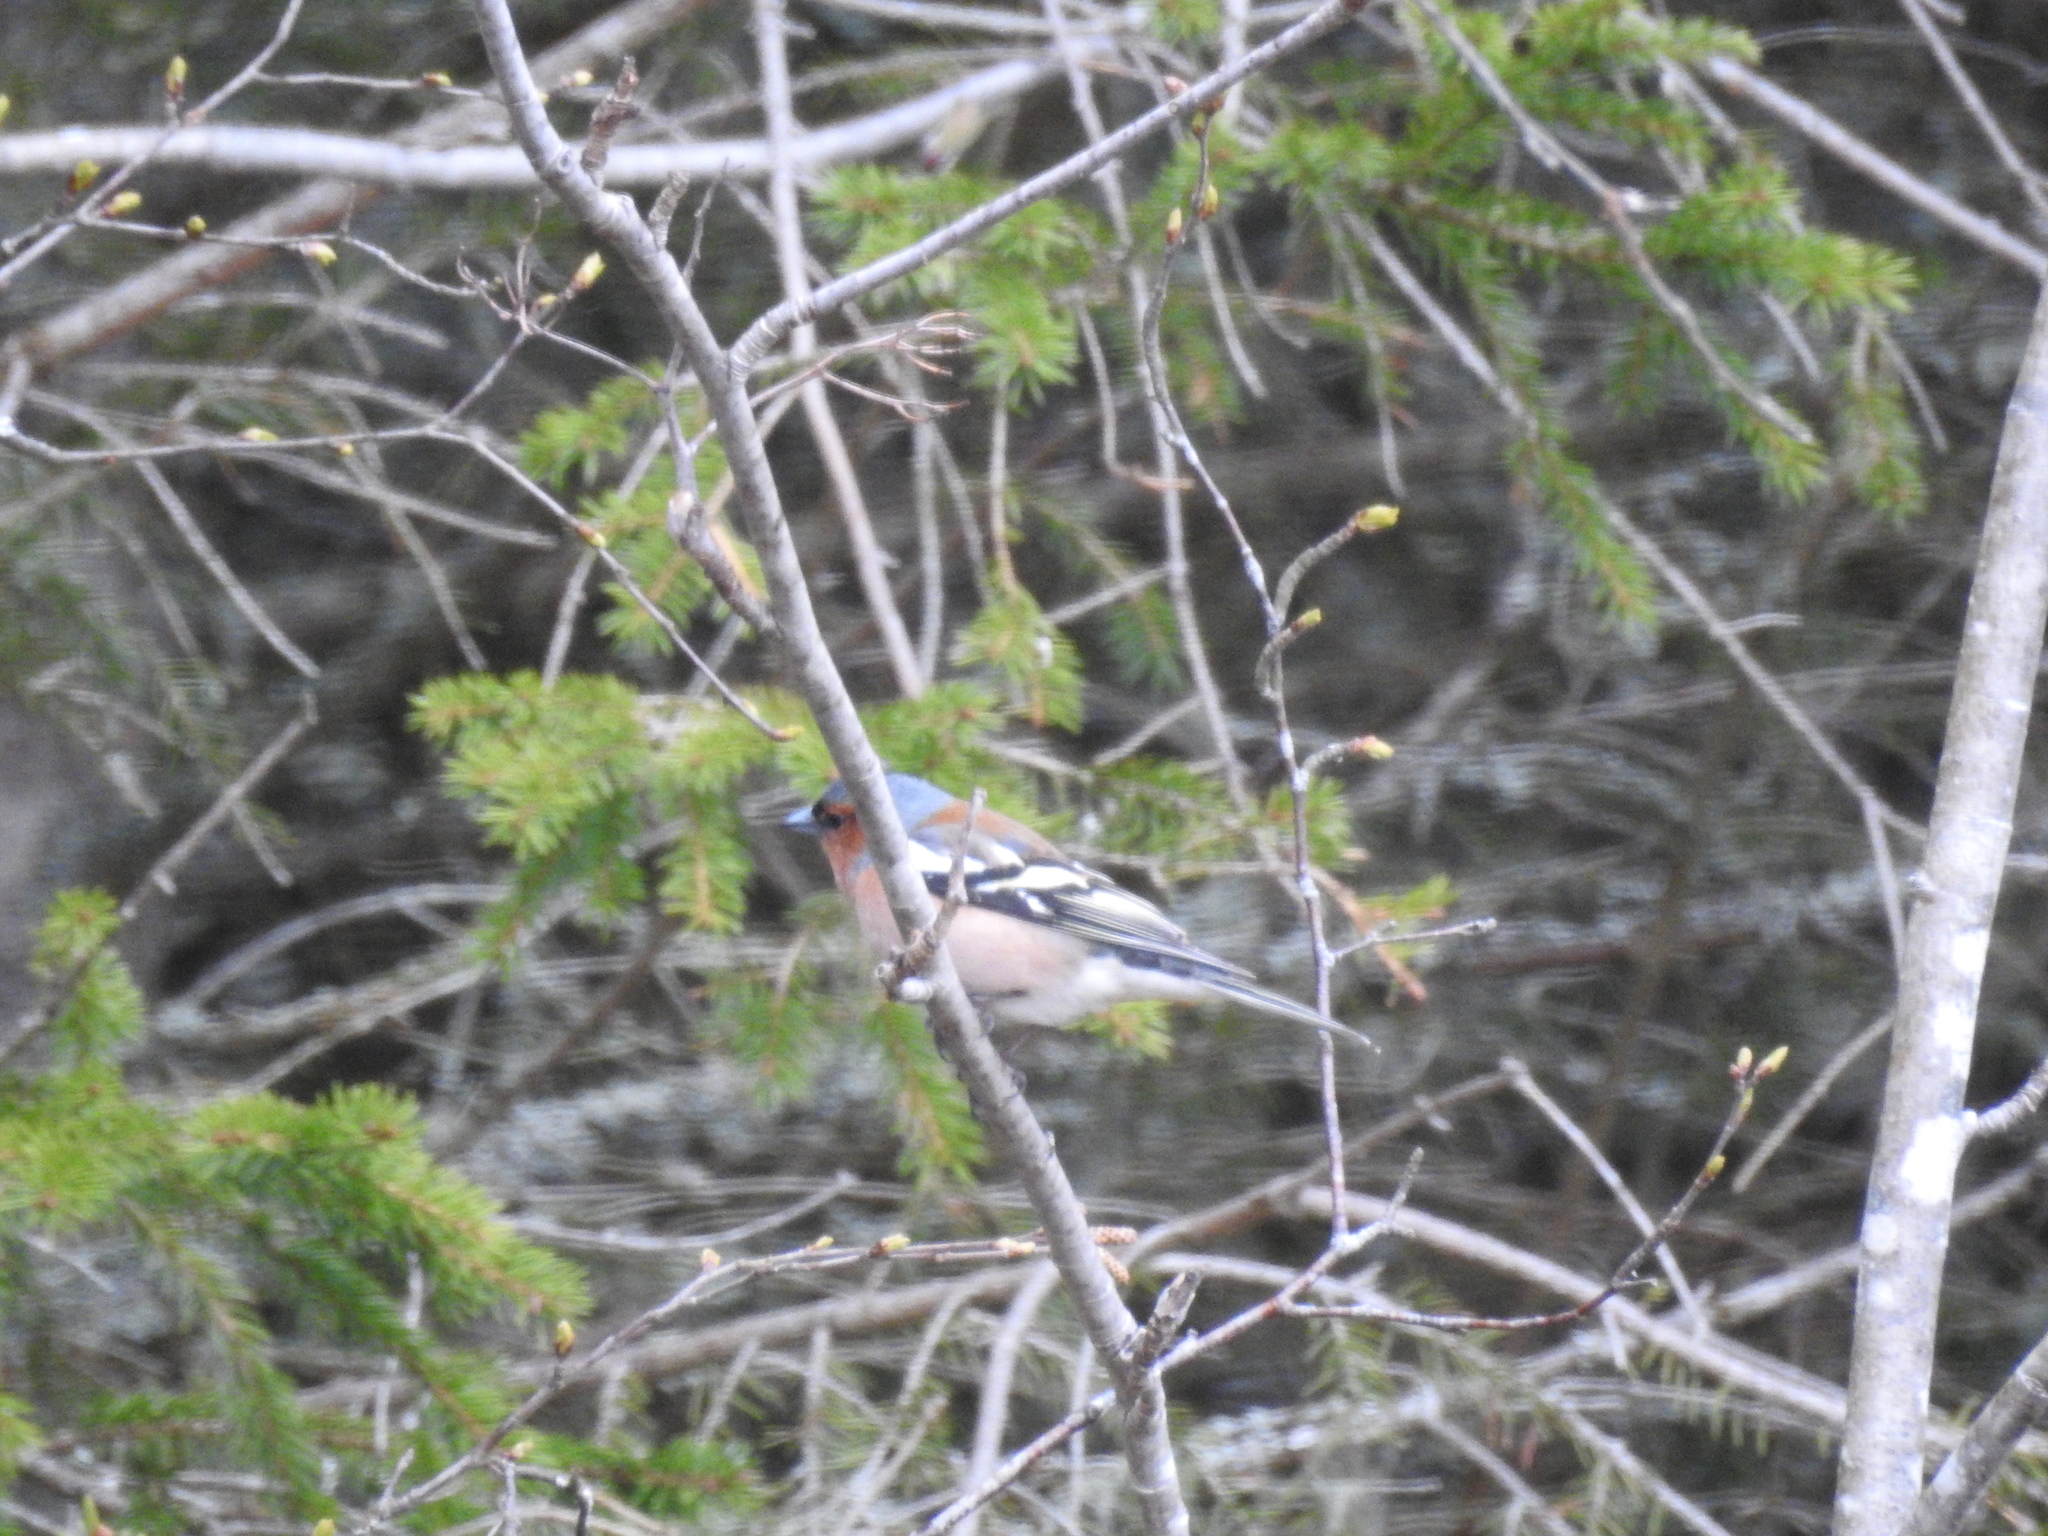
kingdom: Animalia
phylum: Chordata
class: Aves
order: Passeriformes
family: Fringillidae
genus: Fringilla
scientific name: Fringilla coelebs
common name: Common chaffinch
